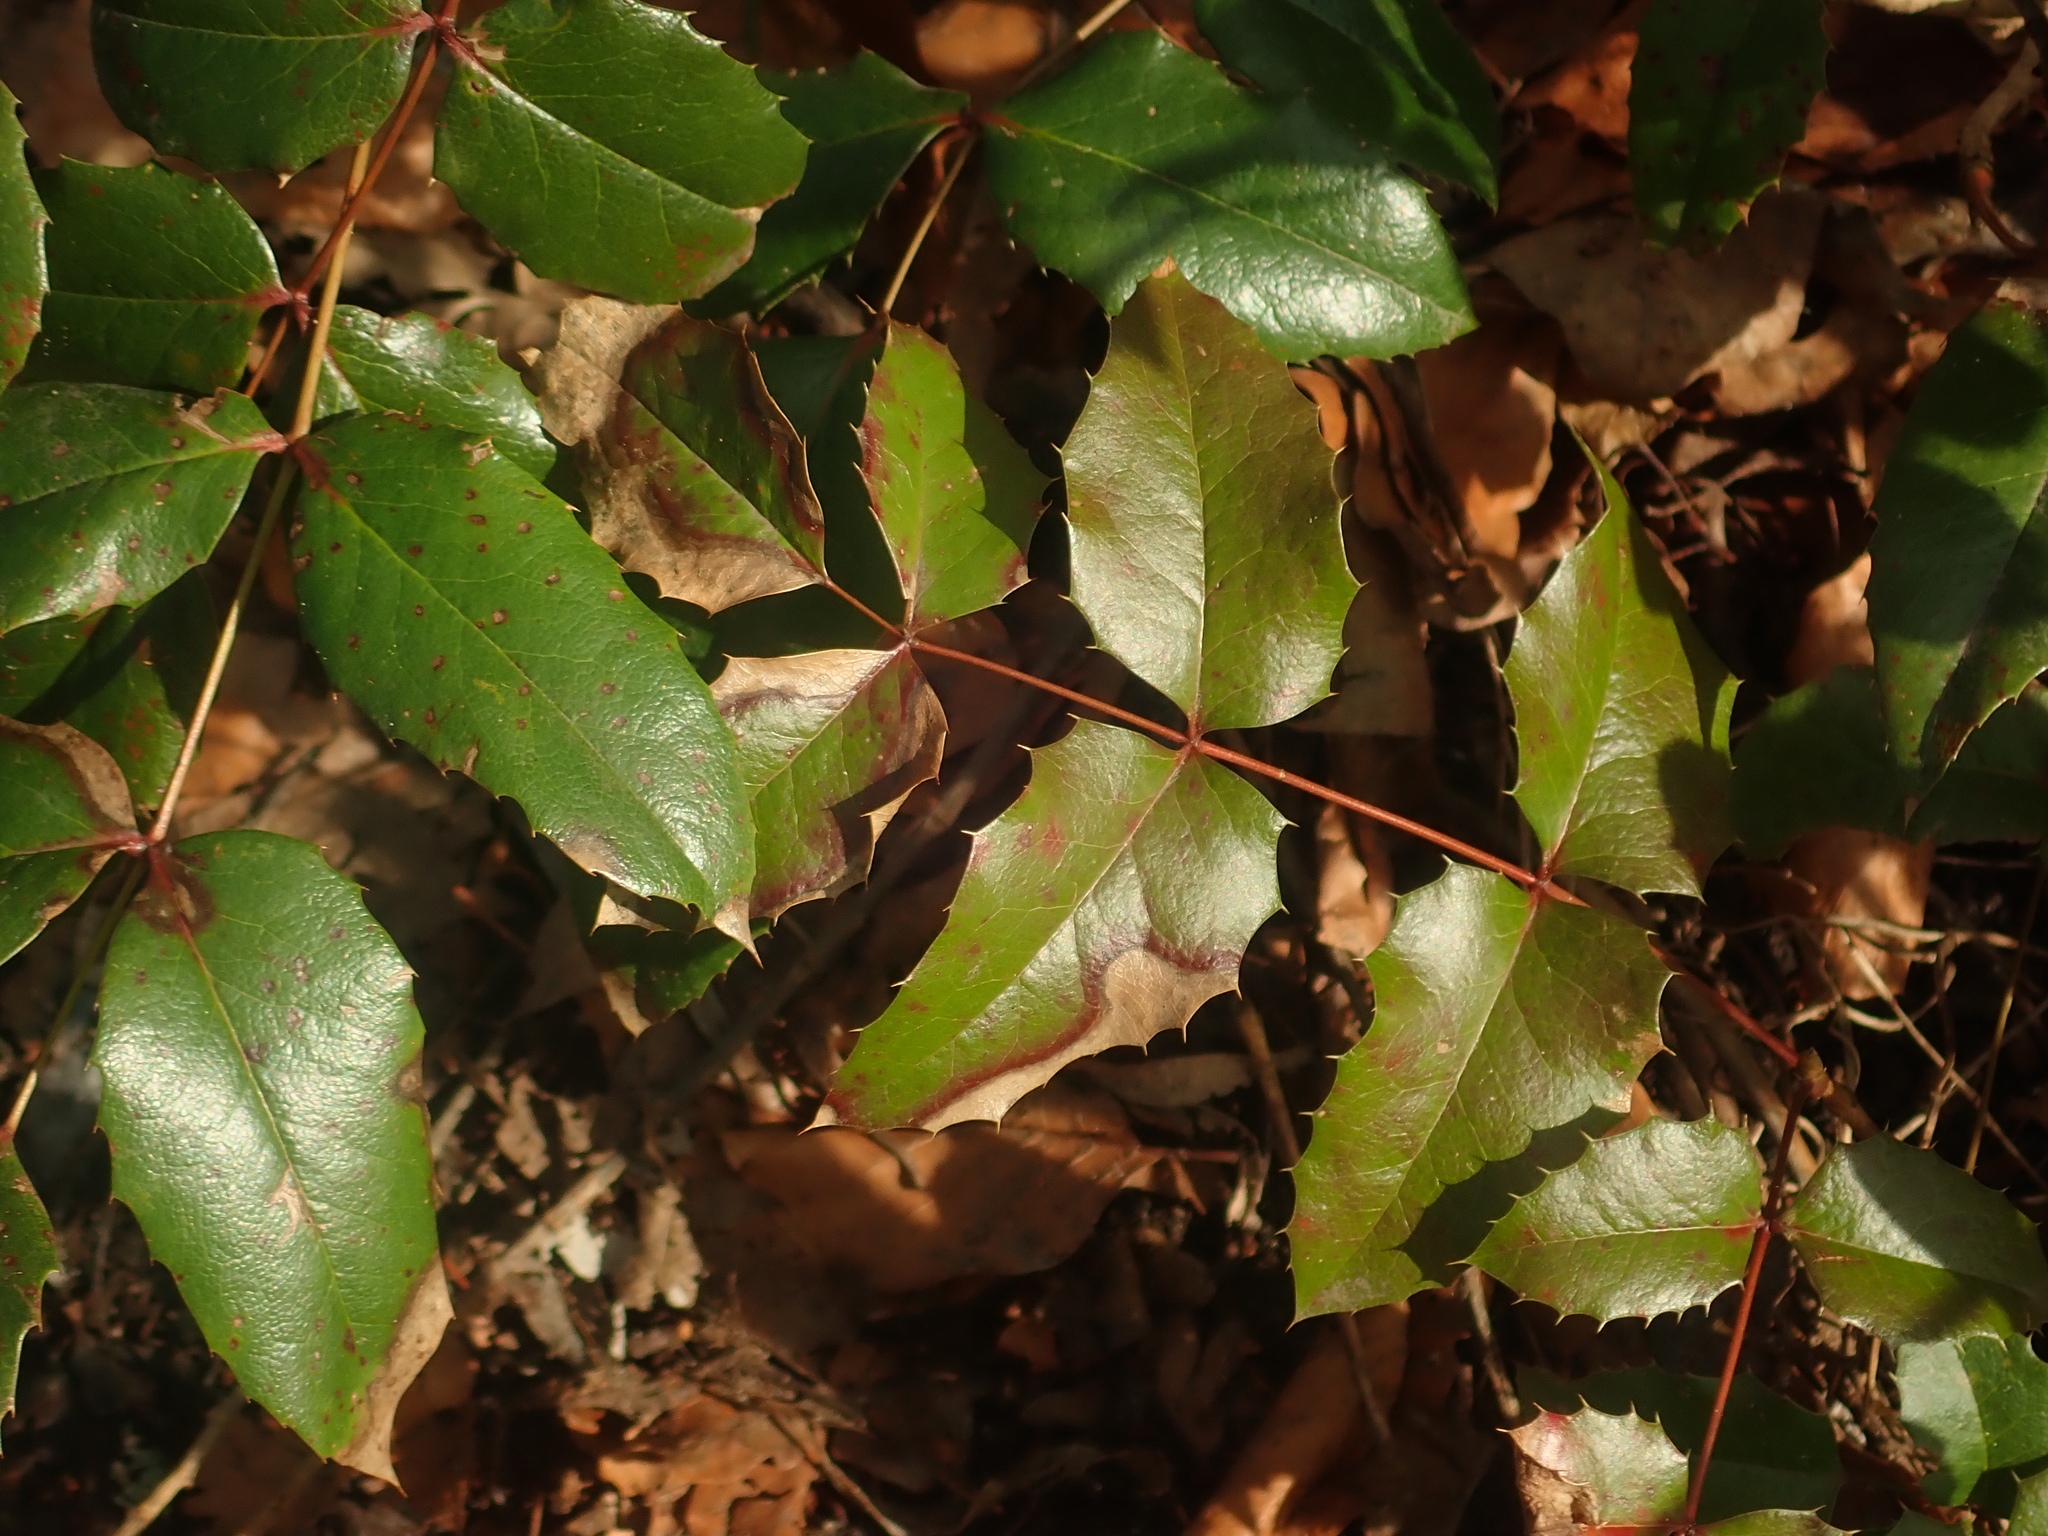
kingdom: Plantae
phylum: Tracheophyta
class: Magnoliopsida
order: Ranunculales
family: Berberidaceae
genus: Mahonia
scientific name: Mahonia aquifolium
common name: Oregon-grape
